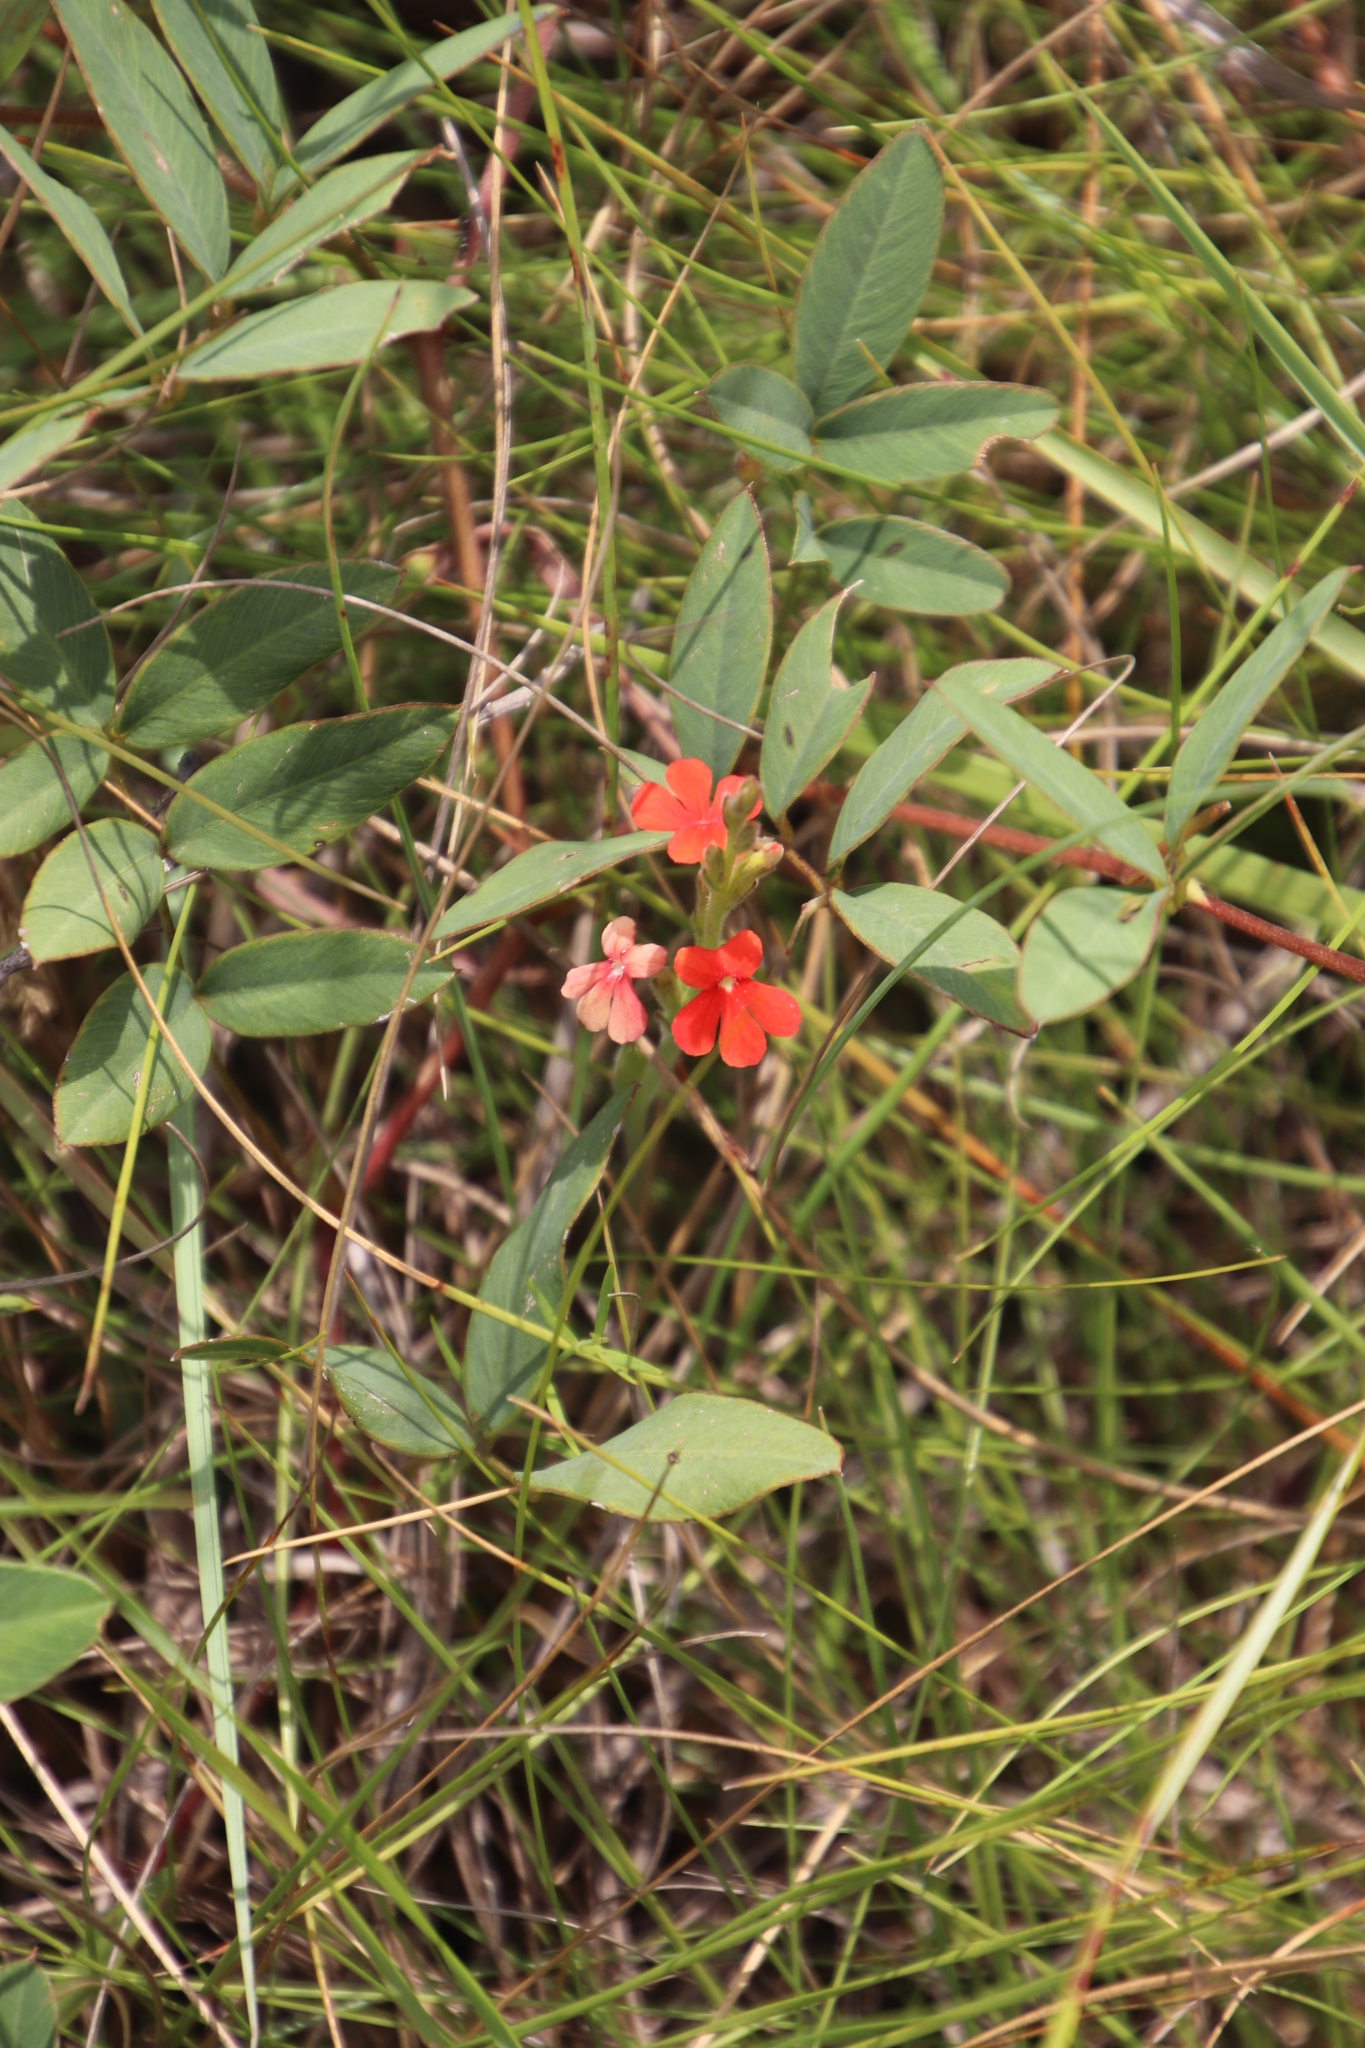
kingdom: Plantae
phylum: Tracheophyta
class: Magnoliopsida
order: Lamiales
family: Orobanchaceae
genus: Striga
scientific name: Striga elegans
